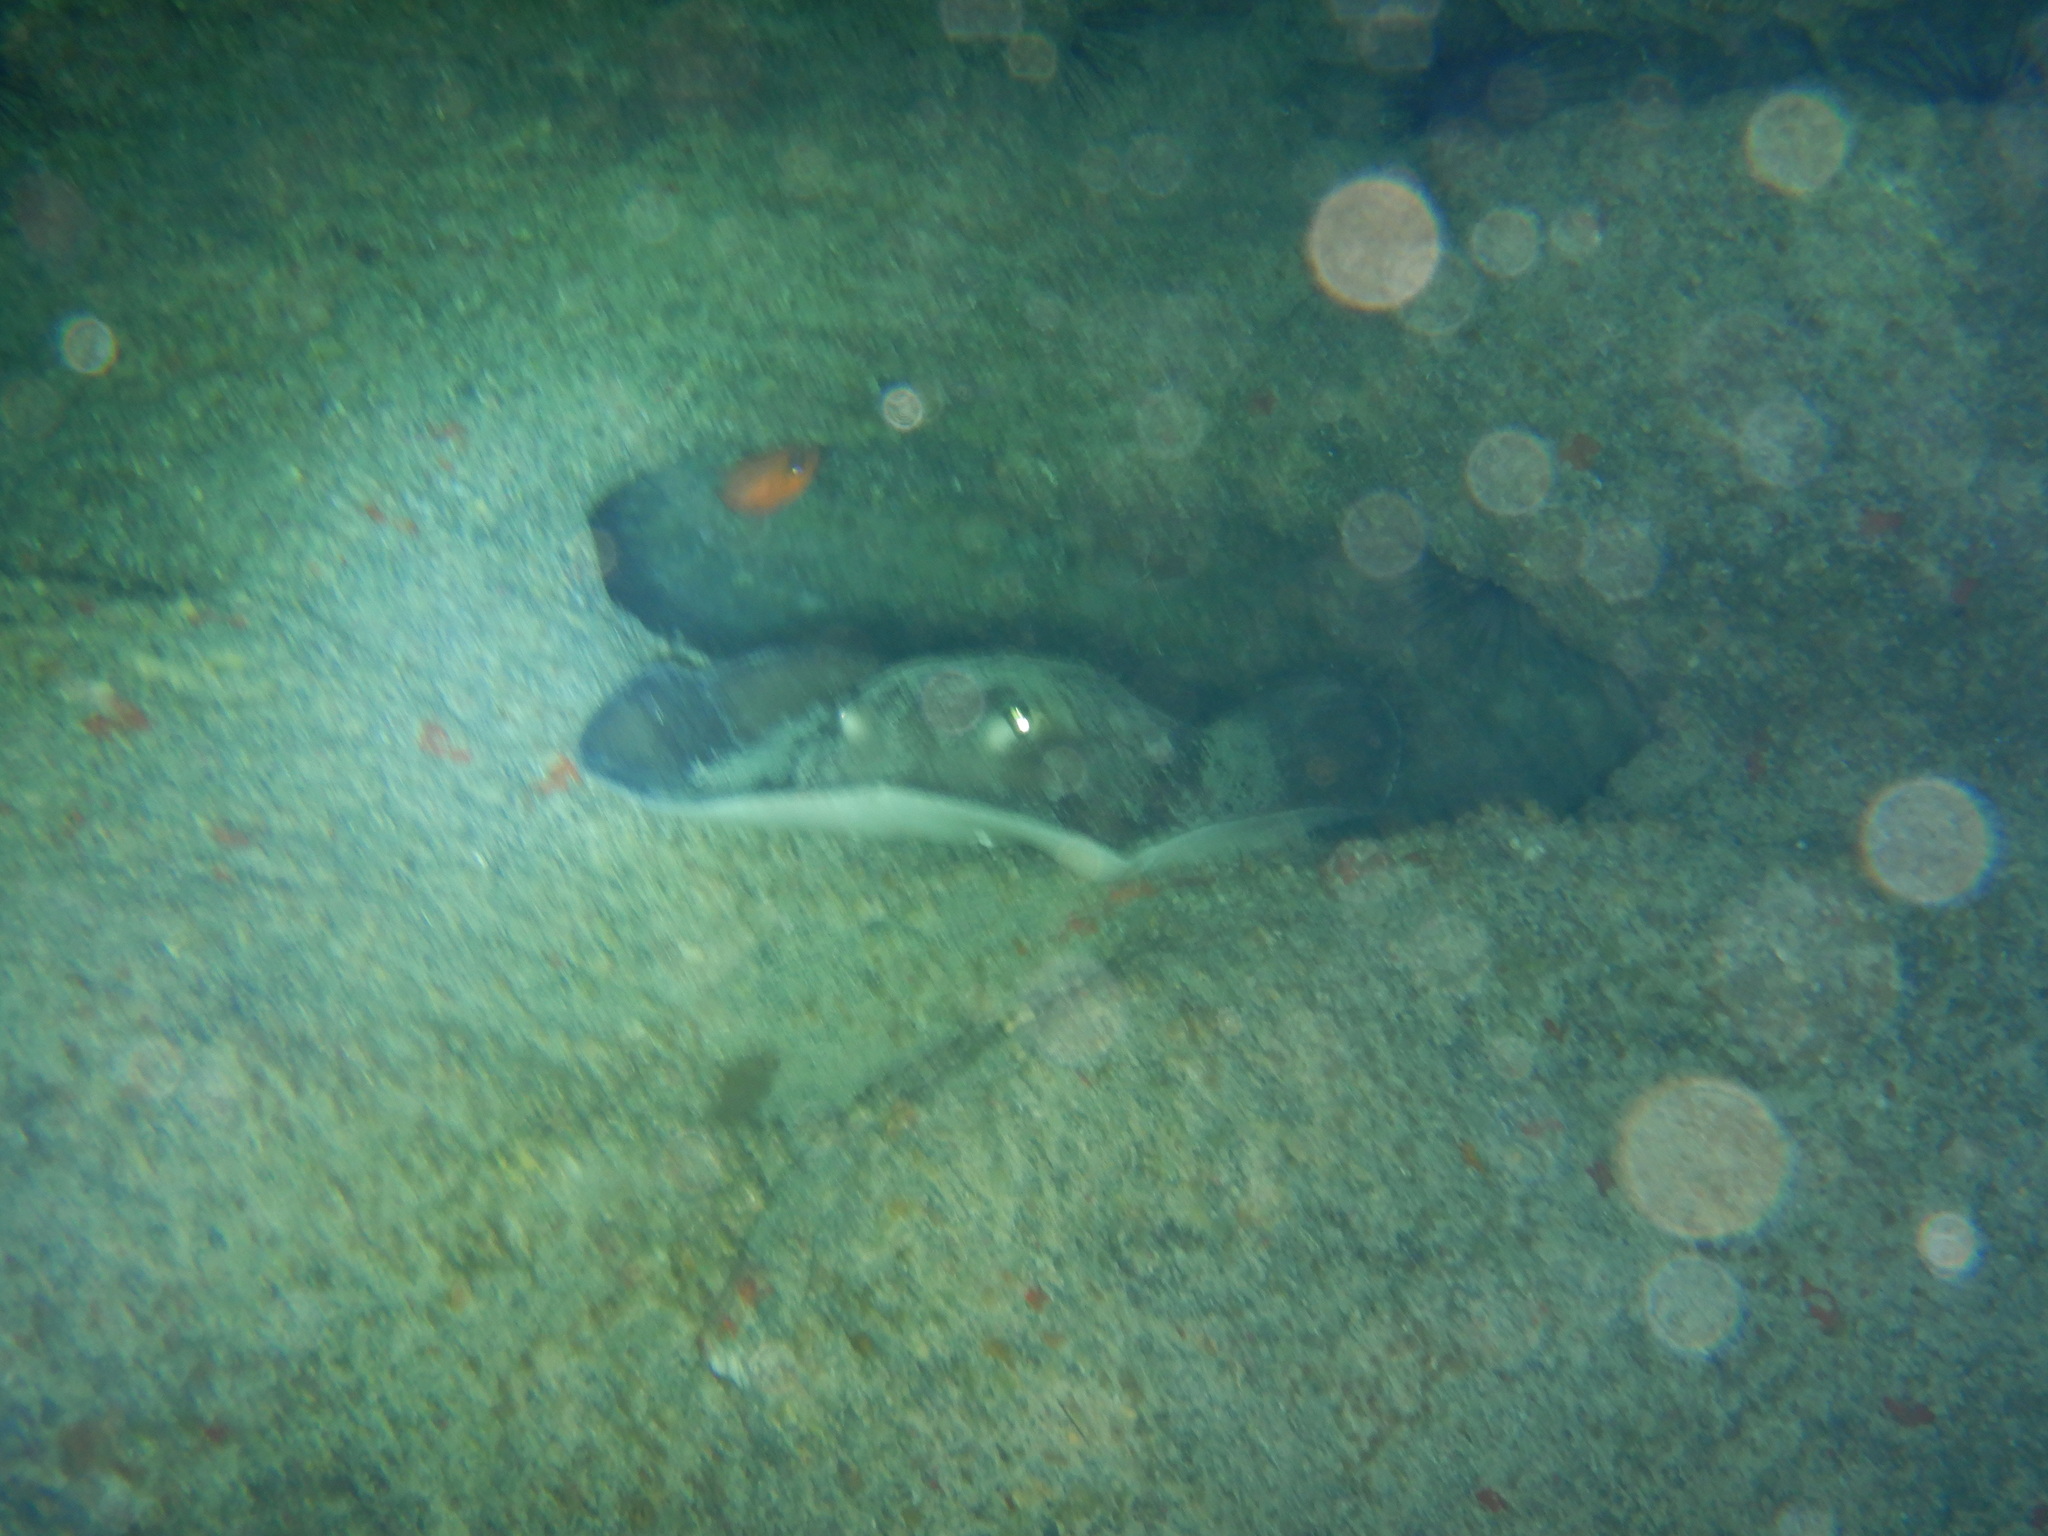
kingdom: Animalia
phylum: Chordata
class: Elasmobranchii
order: Myliobatiformes
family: Dasyatidae
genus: Taeniura
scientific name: Taeniura grabata
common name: Round stingray
